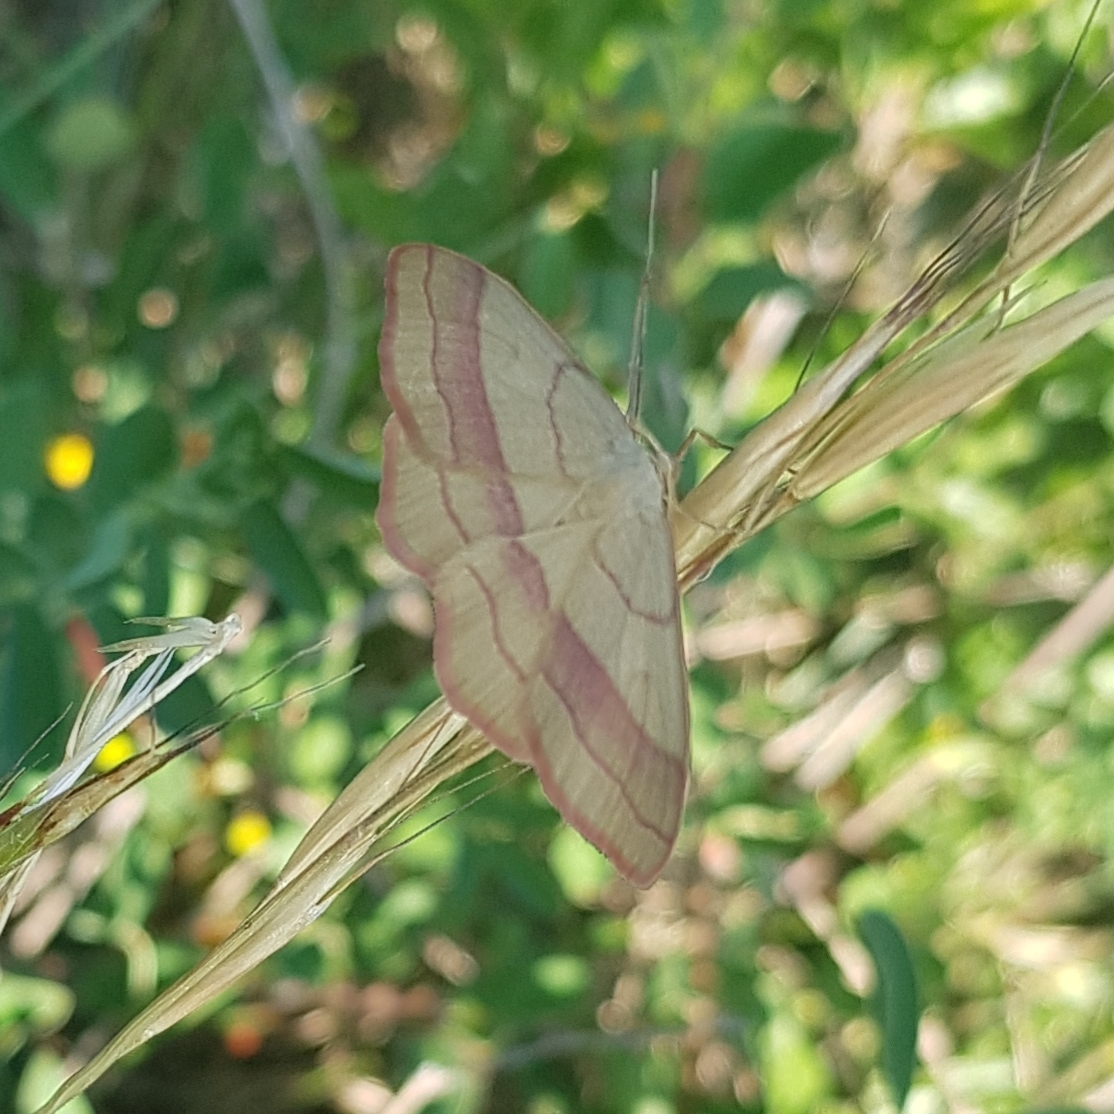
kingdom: Animalia
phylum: Arthropoda
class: Insecta
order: Lepidoptera
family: Geometridae
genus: Rhodostrophia
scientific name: Rhodostrophia vibicaria
